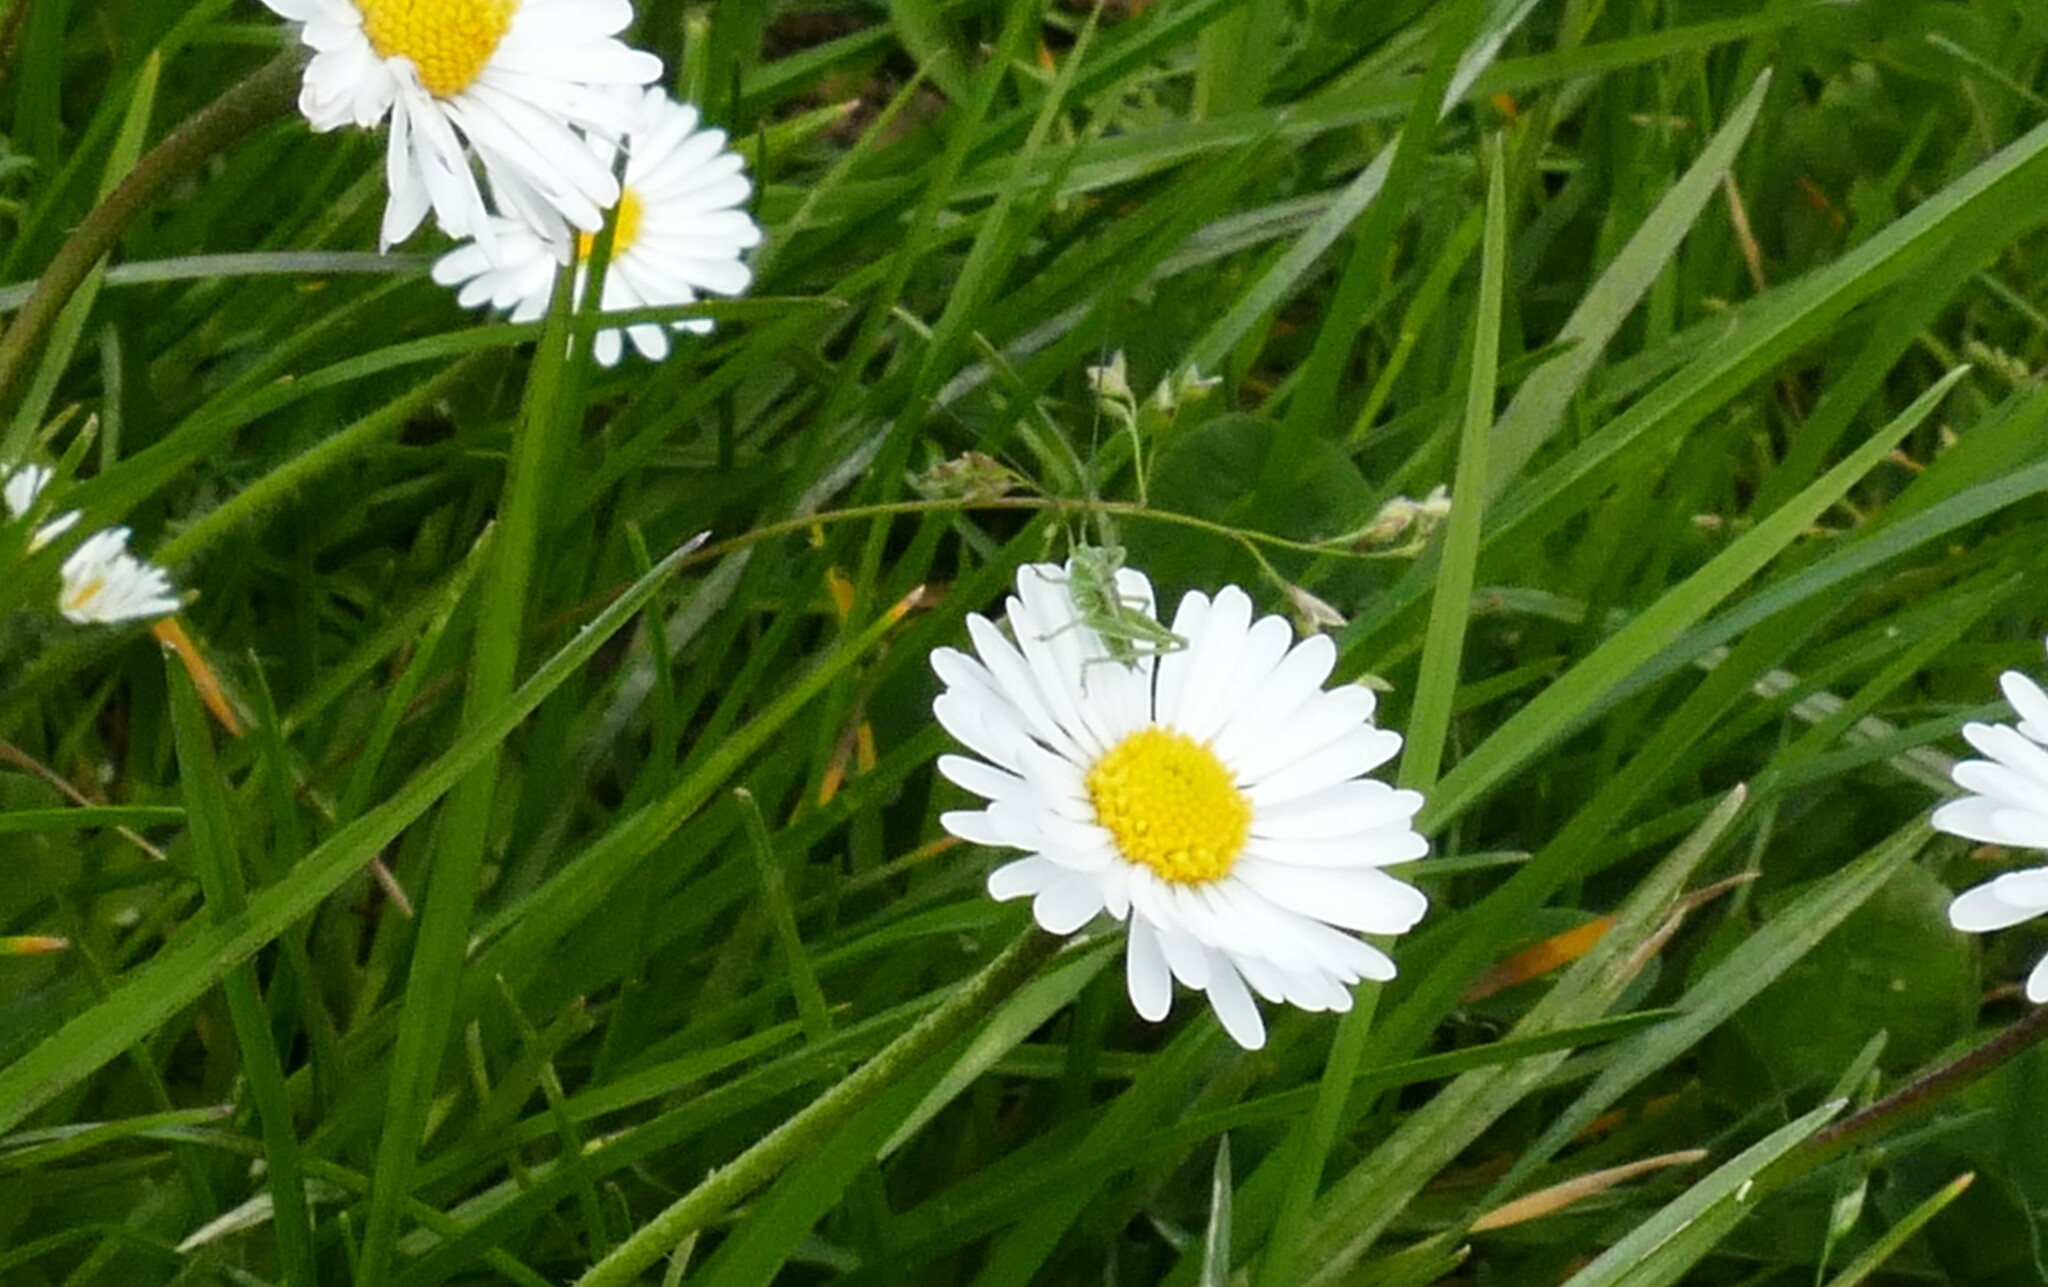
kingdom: Animalia
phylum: Arthropoda
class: Insecta
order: Orthoptera
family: Tettigoniidae
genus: Tettigonia
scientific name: Tettigonia viridissima
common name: Great green bush-cricket
